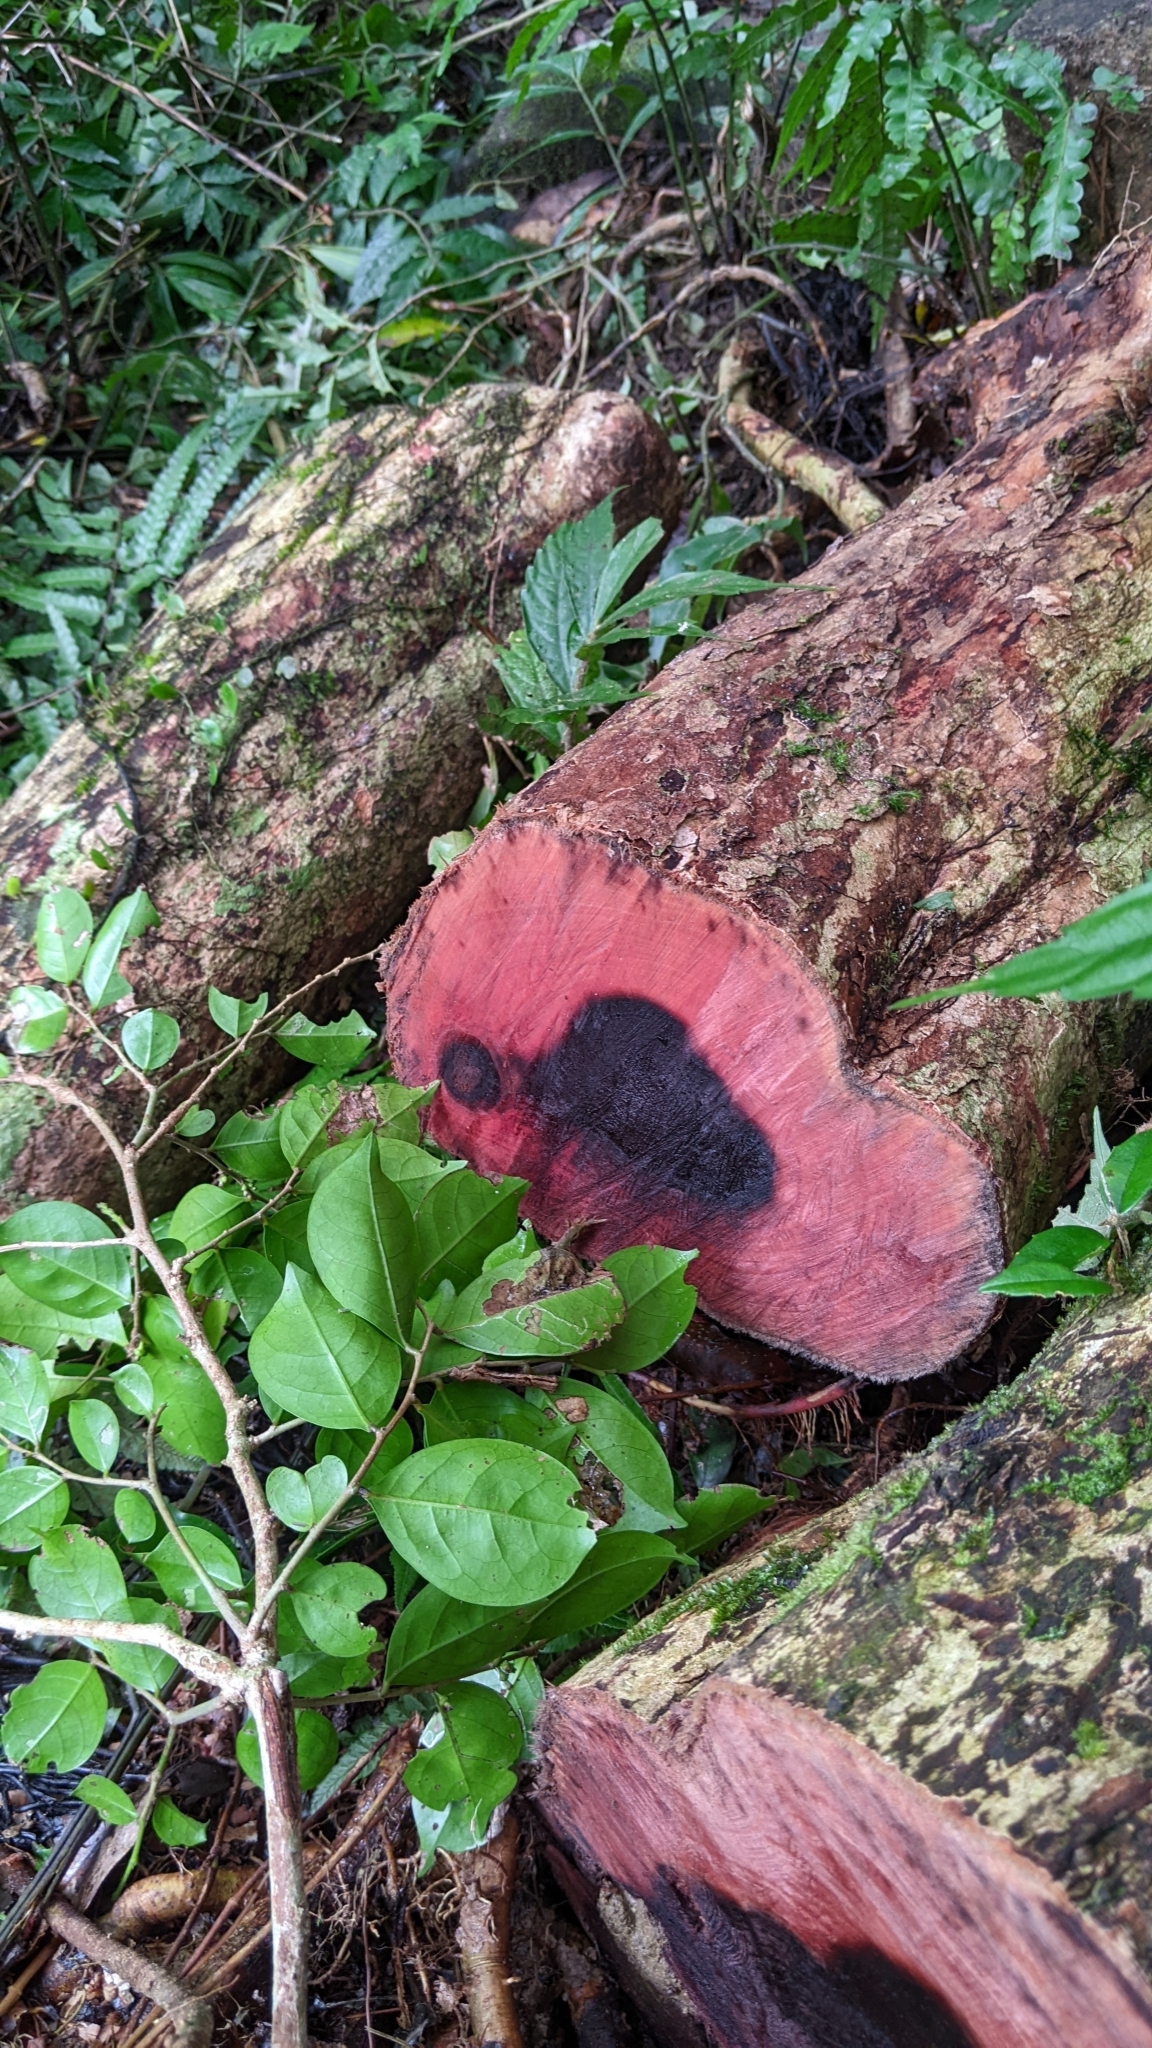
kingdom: Plantae
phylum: Tracheophyta
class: Magnoliopsida
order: Malpighiales
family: Phyllanthaceae
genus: Glochidion
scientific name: Glochidion rubrum
